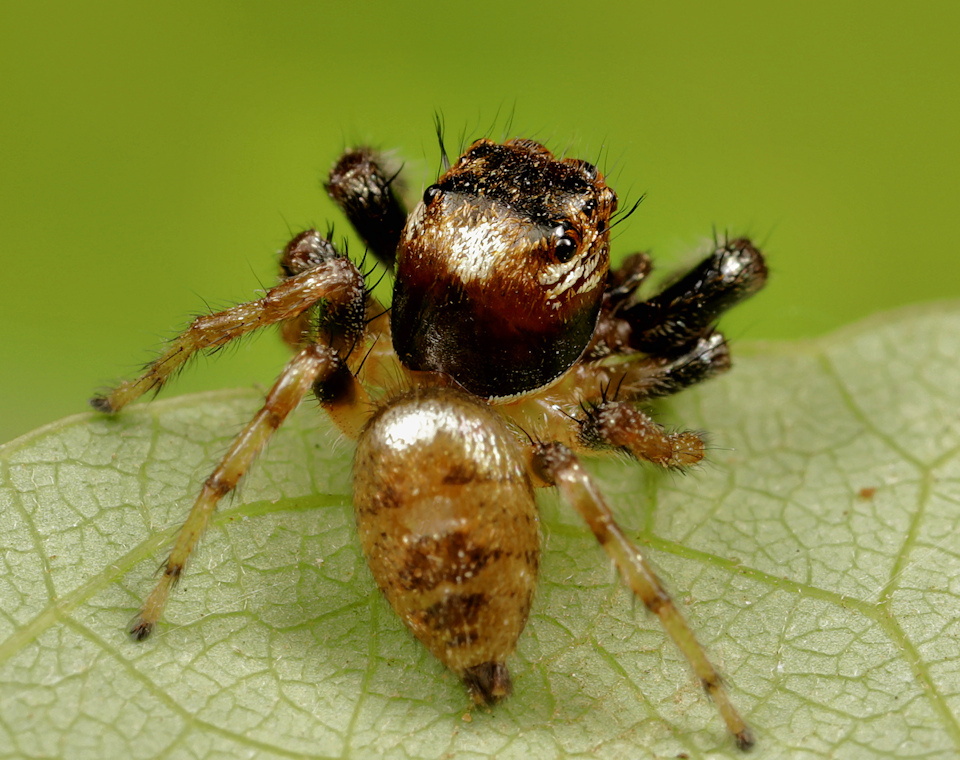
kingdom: Animalia
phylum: Arthropoda
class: Arachnida
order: Araneae
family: Salticidae
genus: Thyene
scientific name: Thyene natalii
